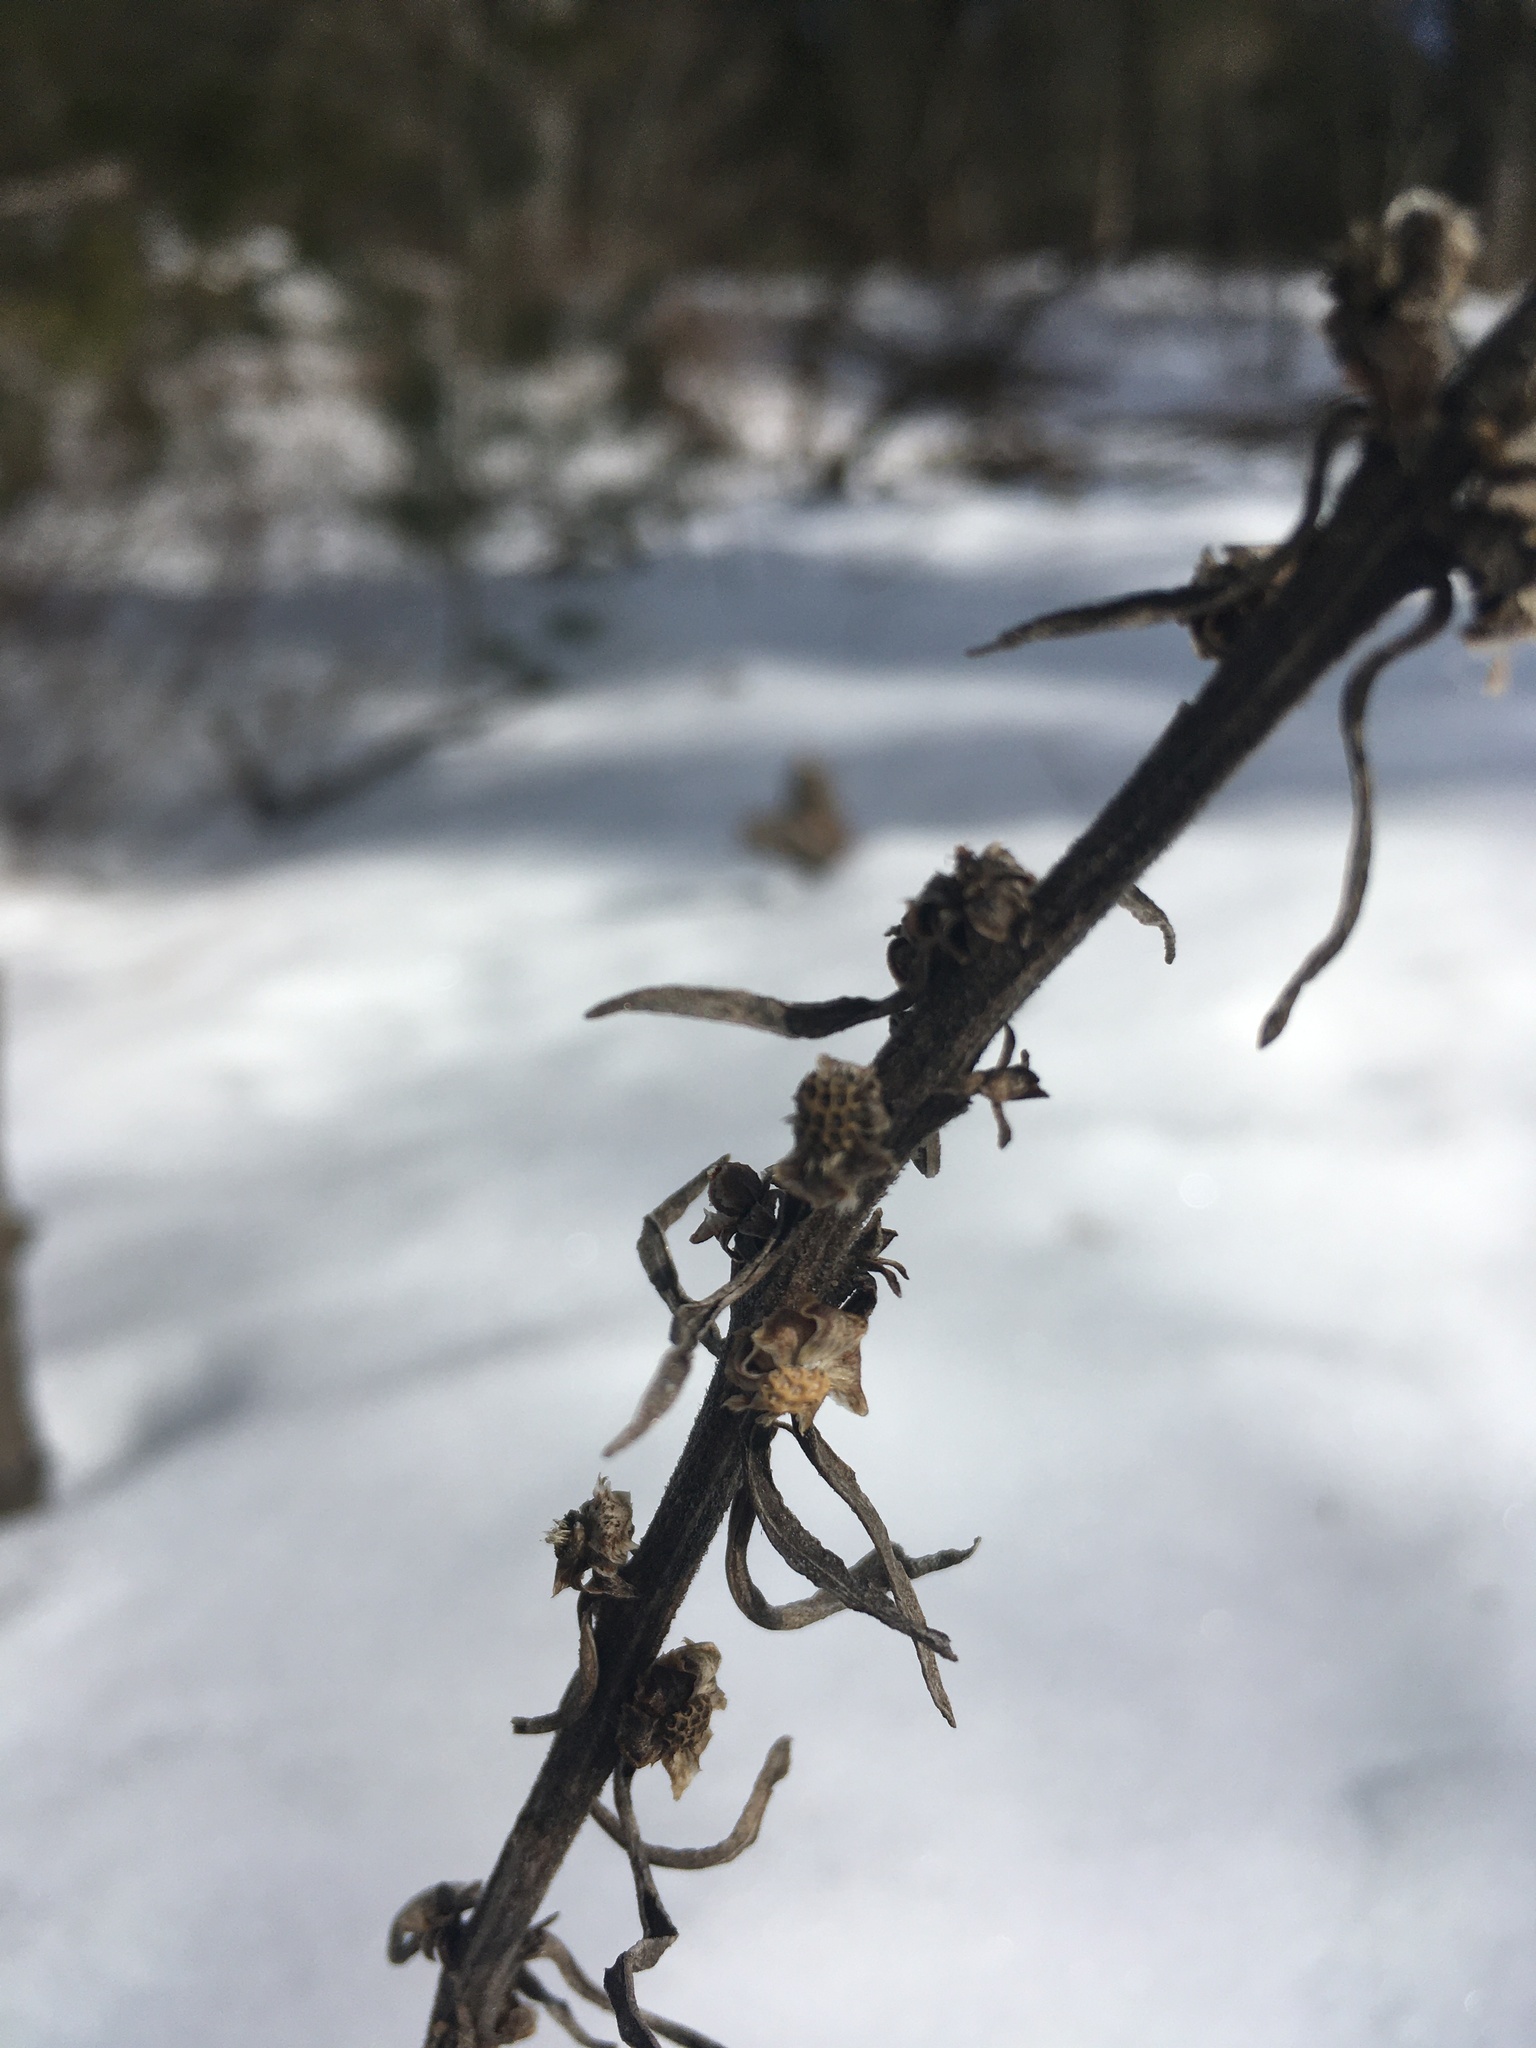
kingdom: Plantae
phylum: Tracheophyta
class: Magnoliopsida
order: Asterales
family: Asteraceae
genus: Liatris
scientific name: Liatris aspera
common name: Lacerate blazing-star
